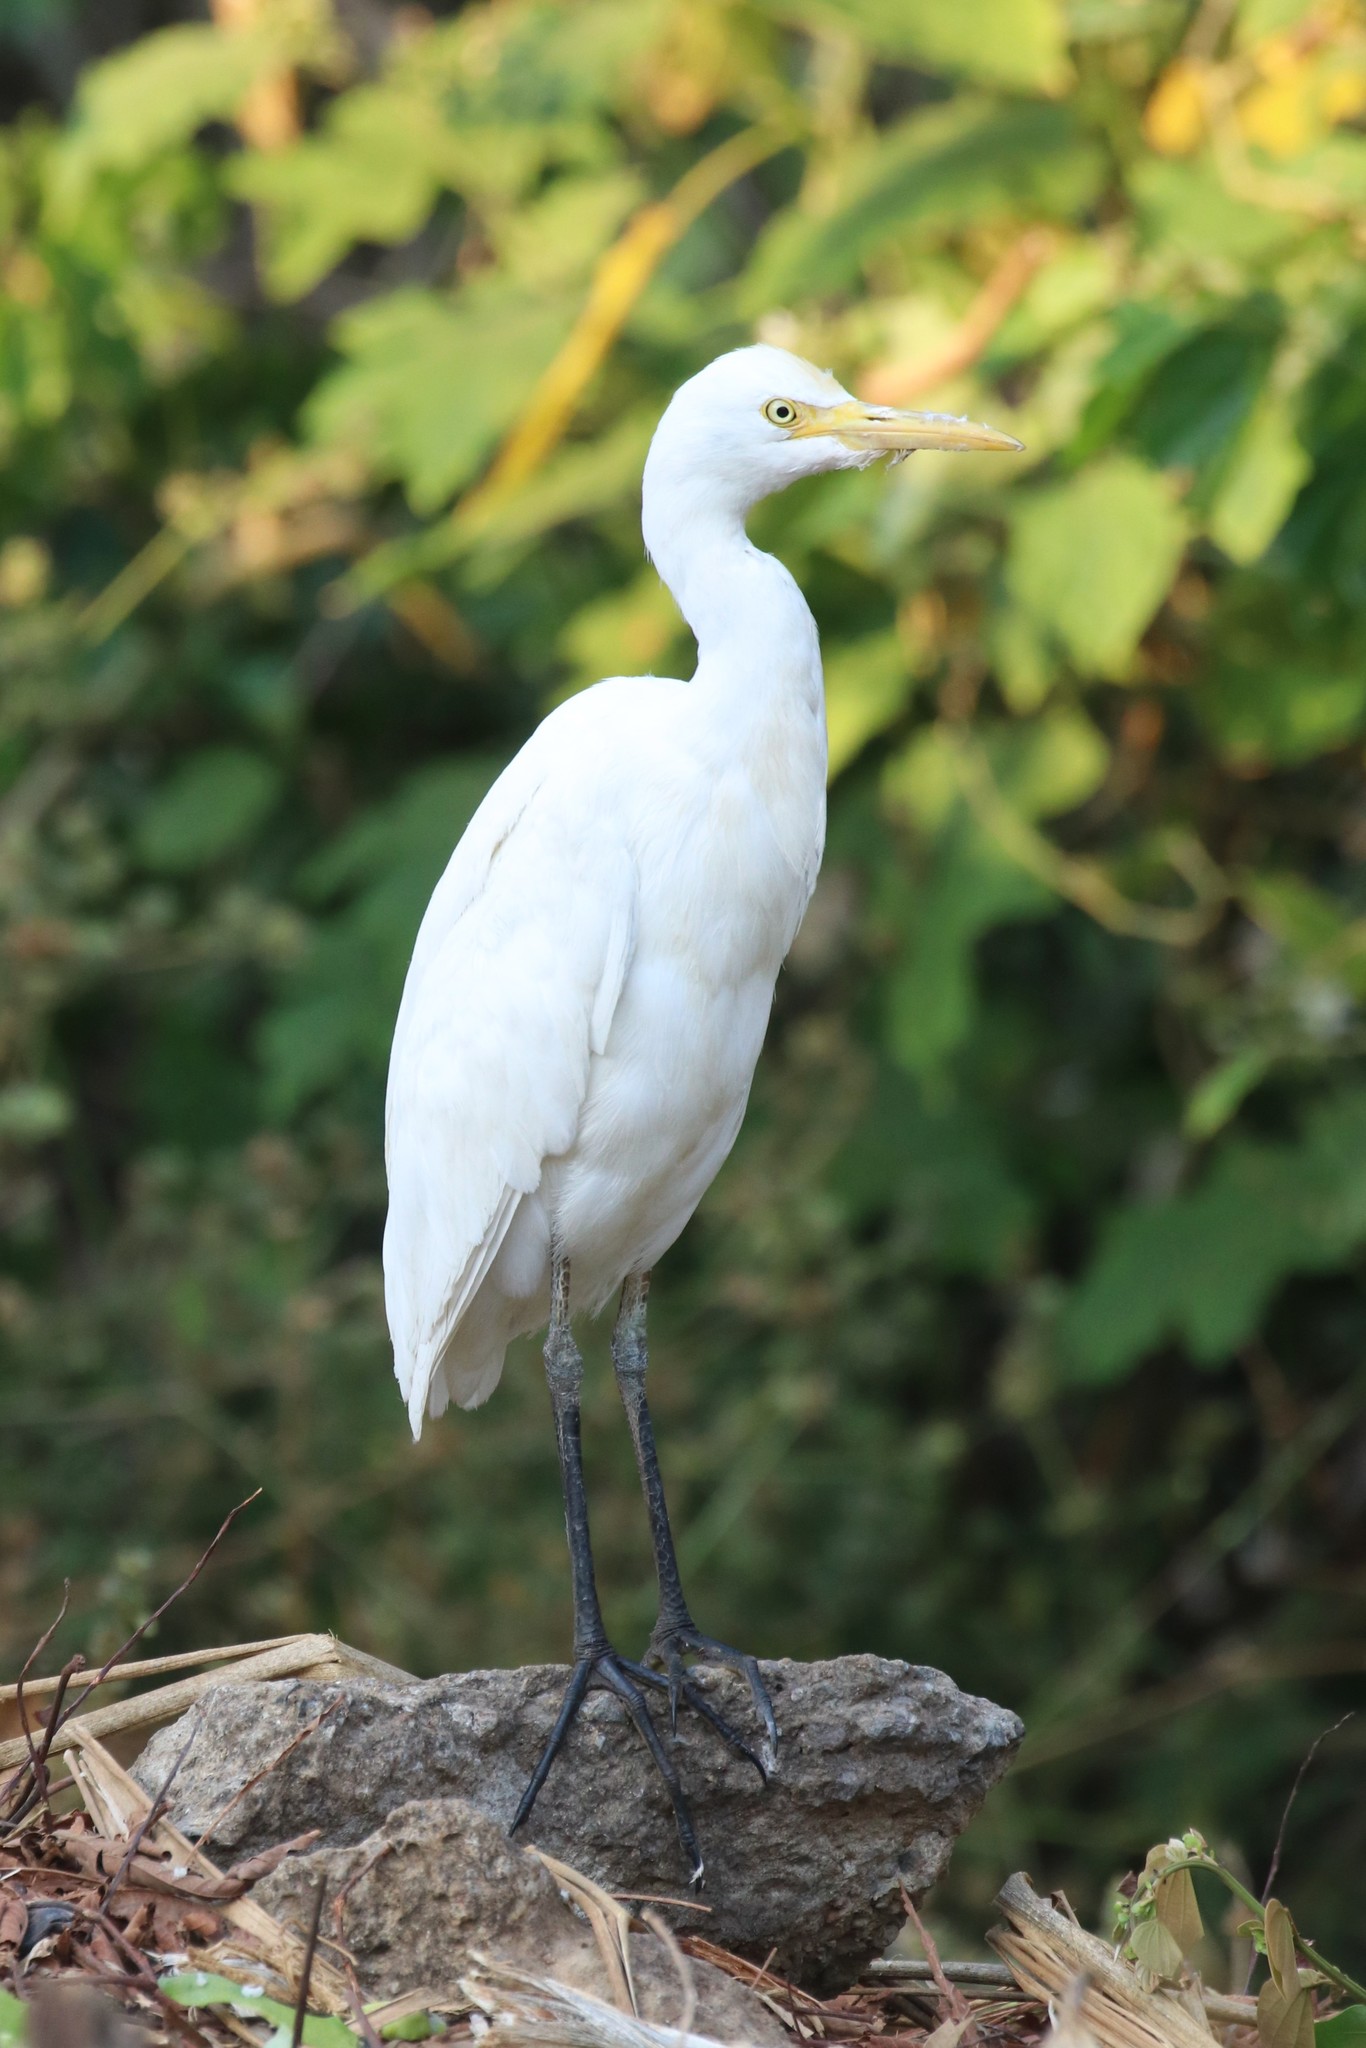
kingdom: Animalia
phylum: Chordata
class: Aves
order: Pelecaniformes
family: Ardeidae
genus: Bubulcus
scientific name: Bubulcus coromandus
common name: Eastern cattle egret
